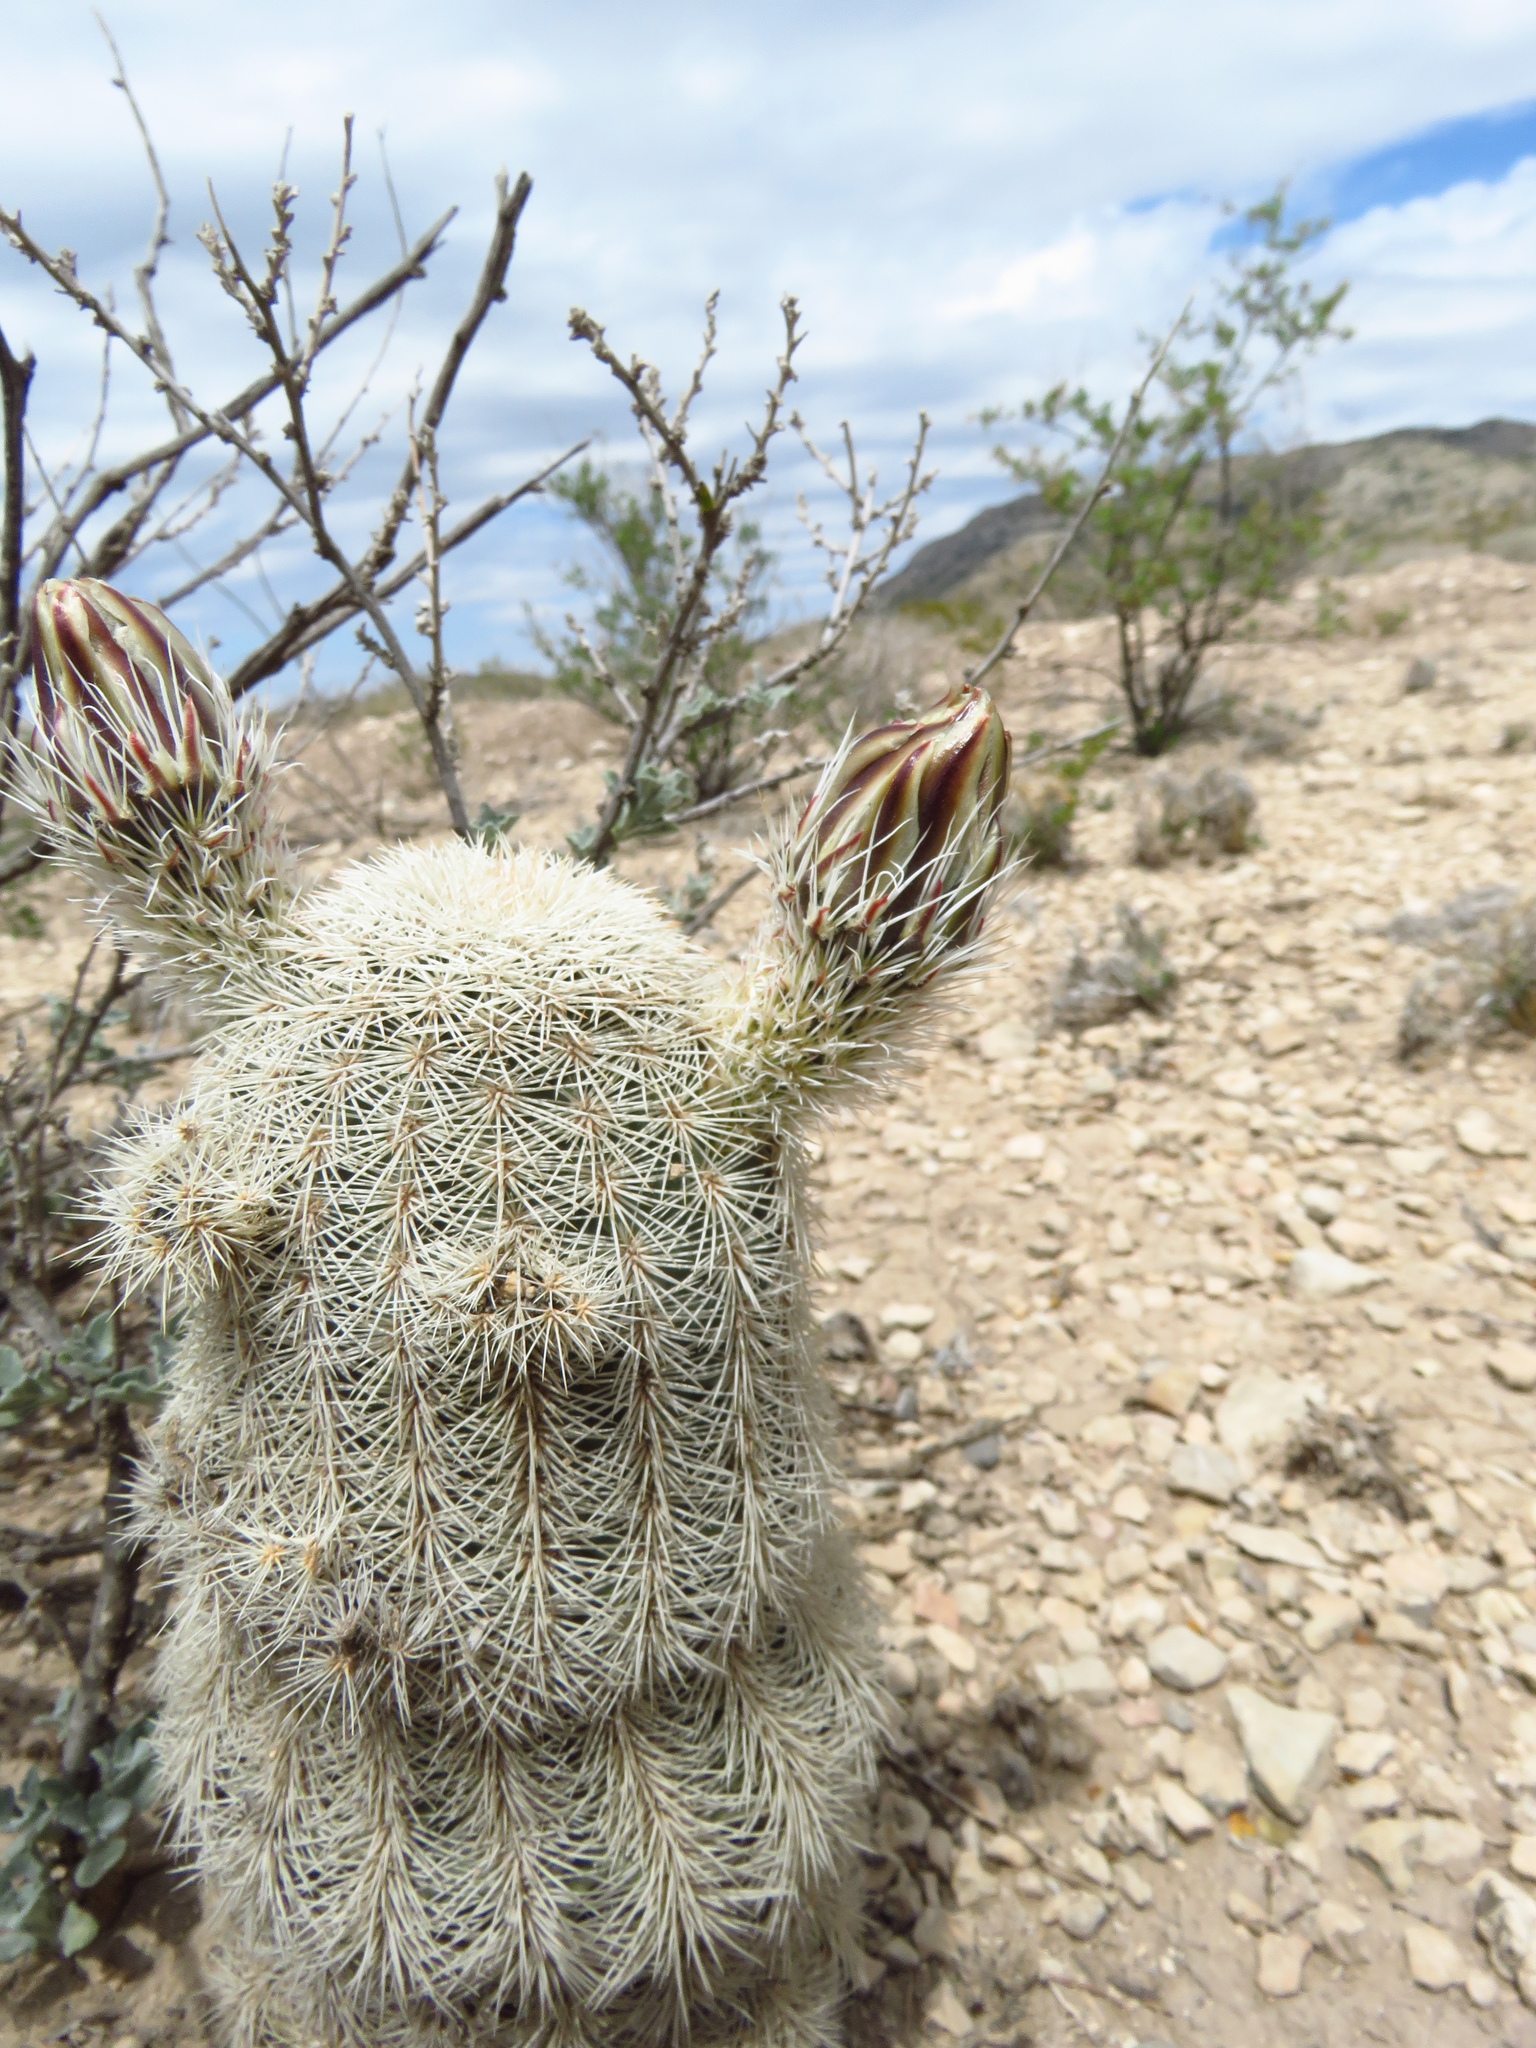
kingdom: Plantae
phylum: Tracheophyta
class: Magnoliopsida
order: Caryophyllales
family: Cactaceae
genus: Echinocereus
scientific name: Echinocereus dasyacanthus
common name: Spiny hedgehog cactus
